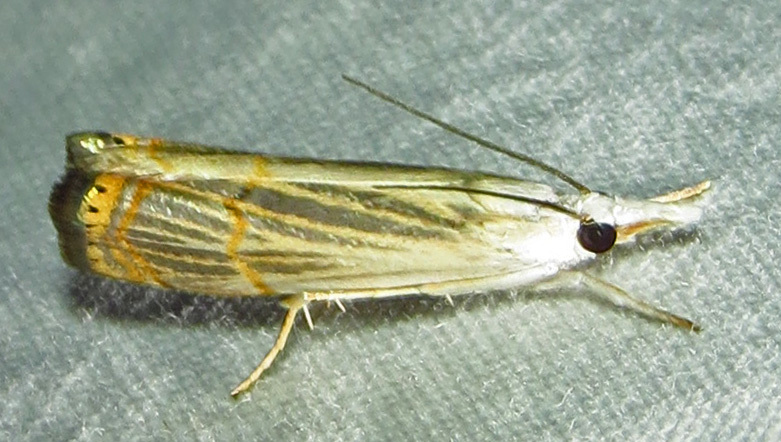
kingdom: Animalia
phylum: Arthropoda
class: Insecta
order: Lepidoptera
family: Crambidae
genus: Parapediasia
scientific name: Parapediasia decorellus
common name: Graceful grass-veneer
